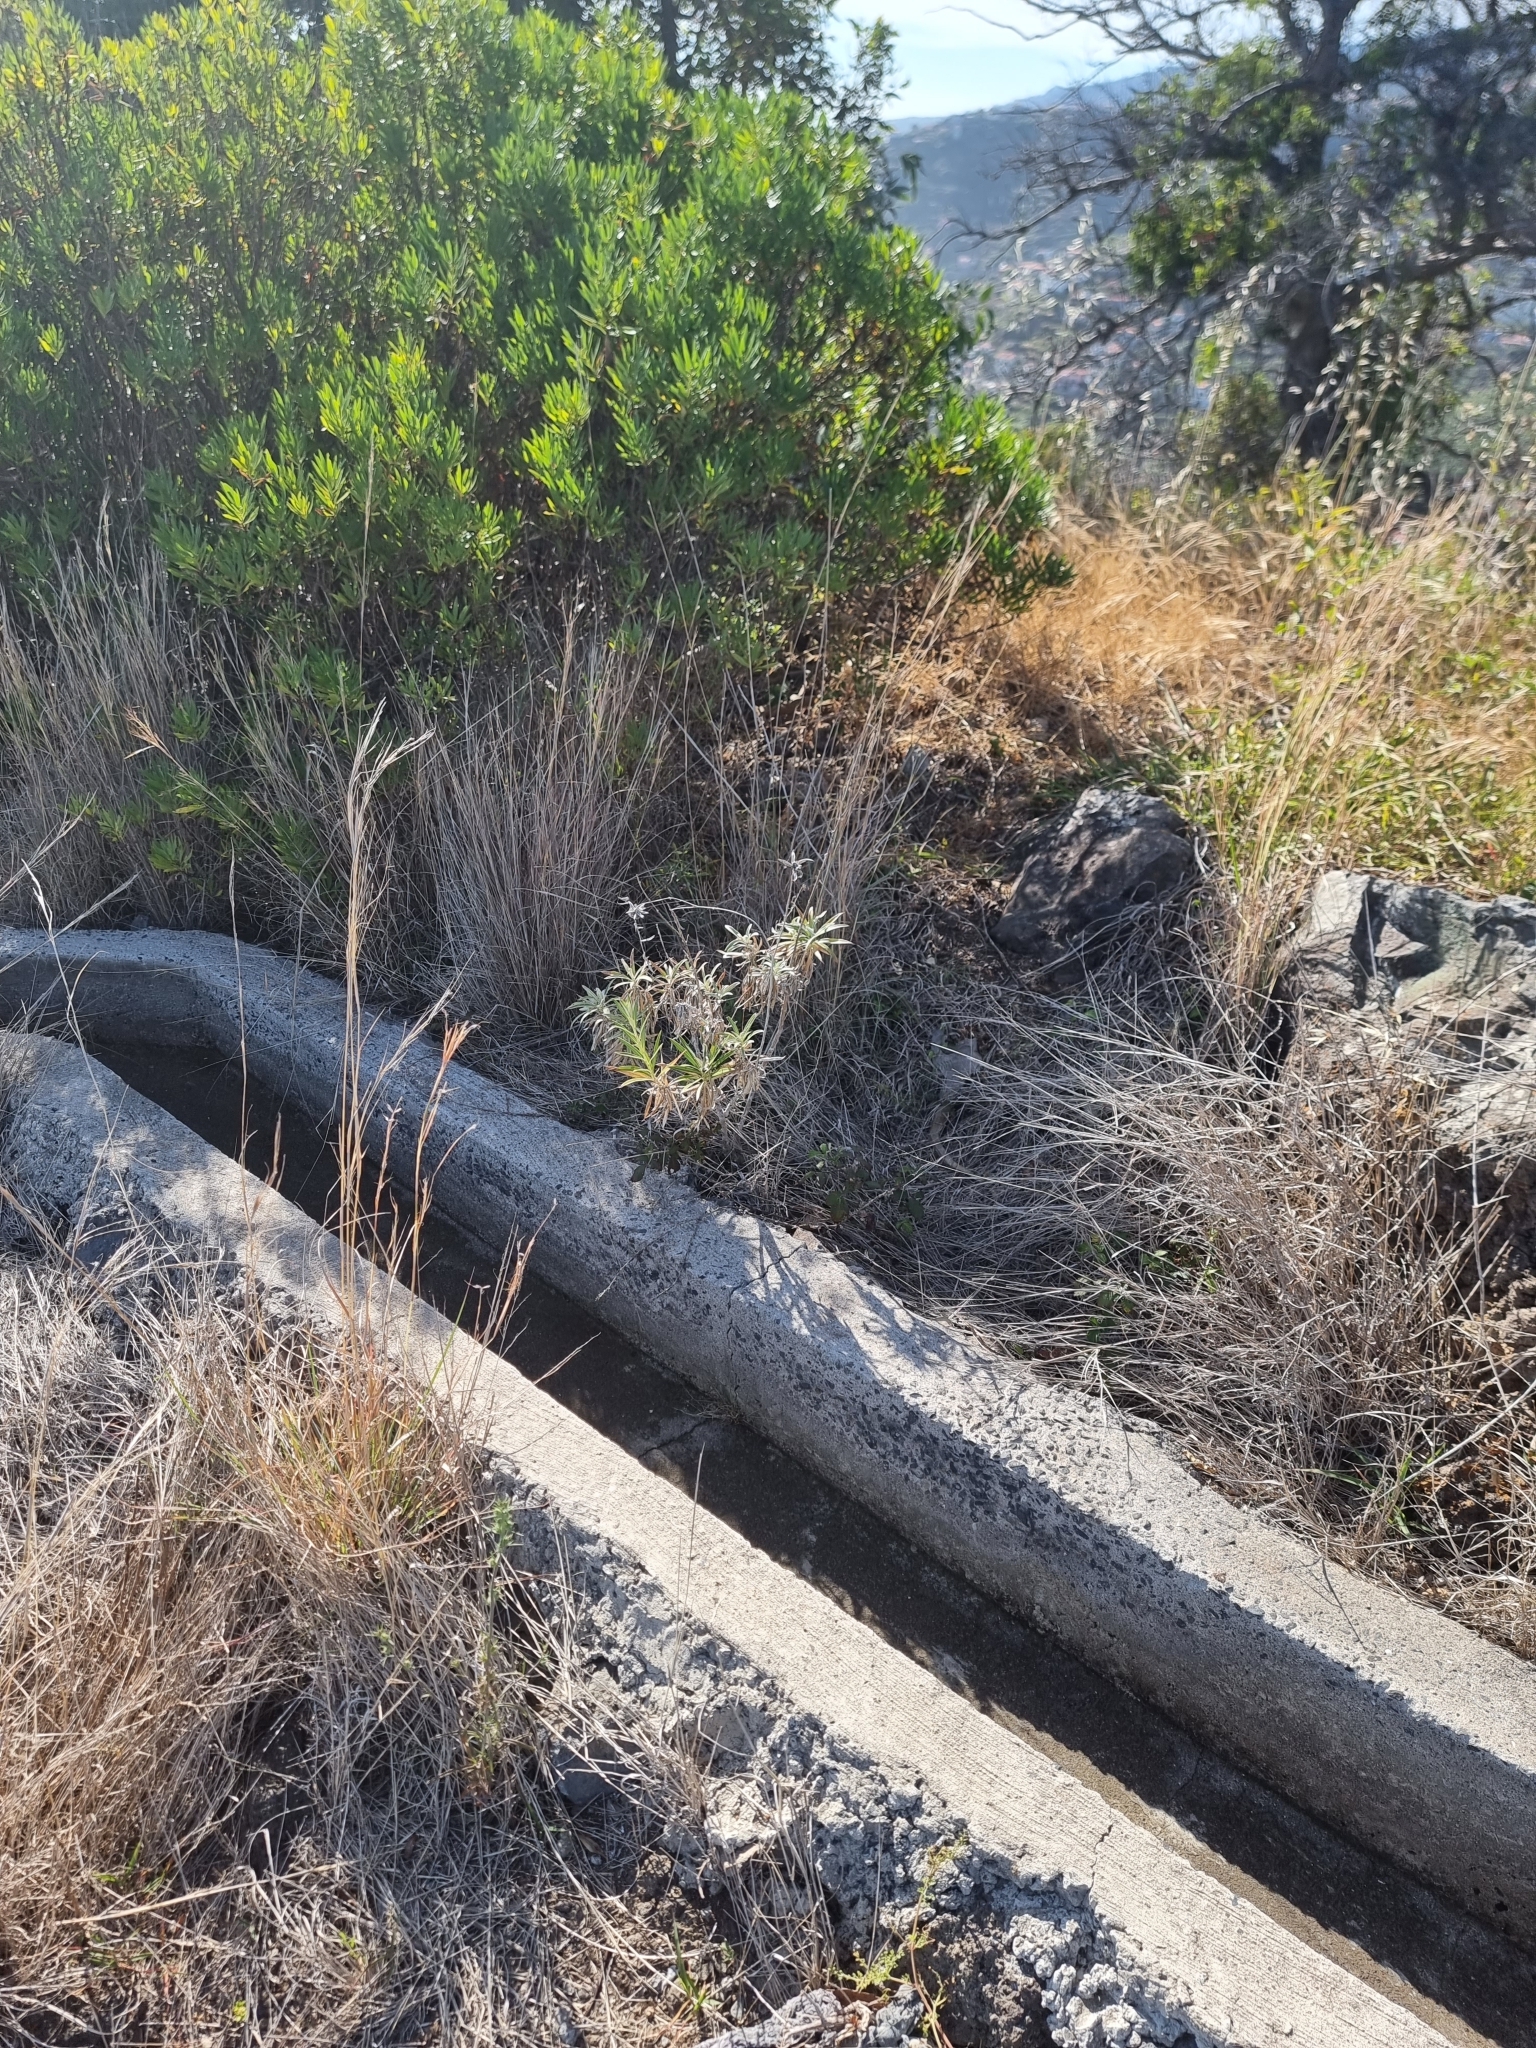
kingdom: Plantae
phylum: Tracheophyta
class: Magnoliopsida
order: Asterales
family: Asteraceae
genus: Carlina
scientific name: Carlina salicifolia
